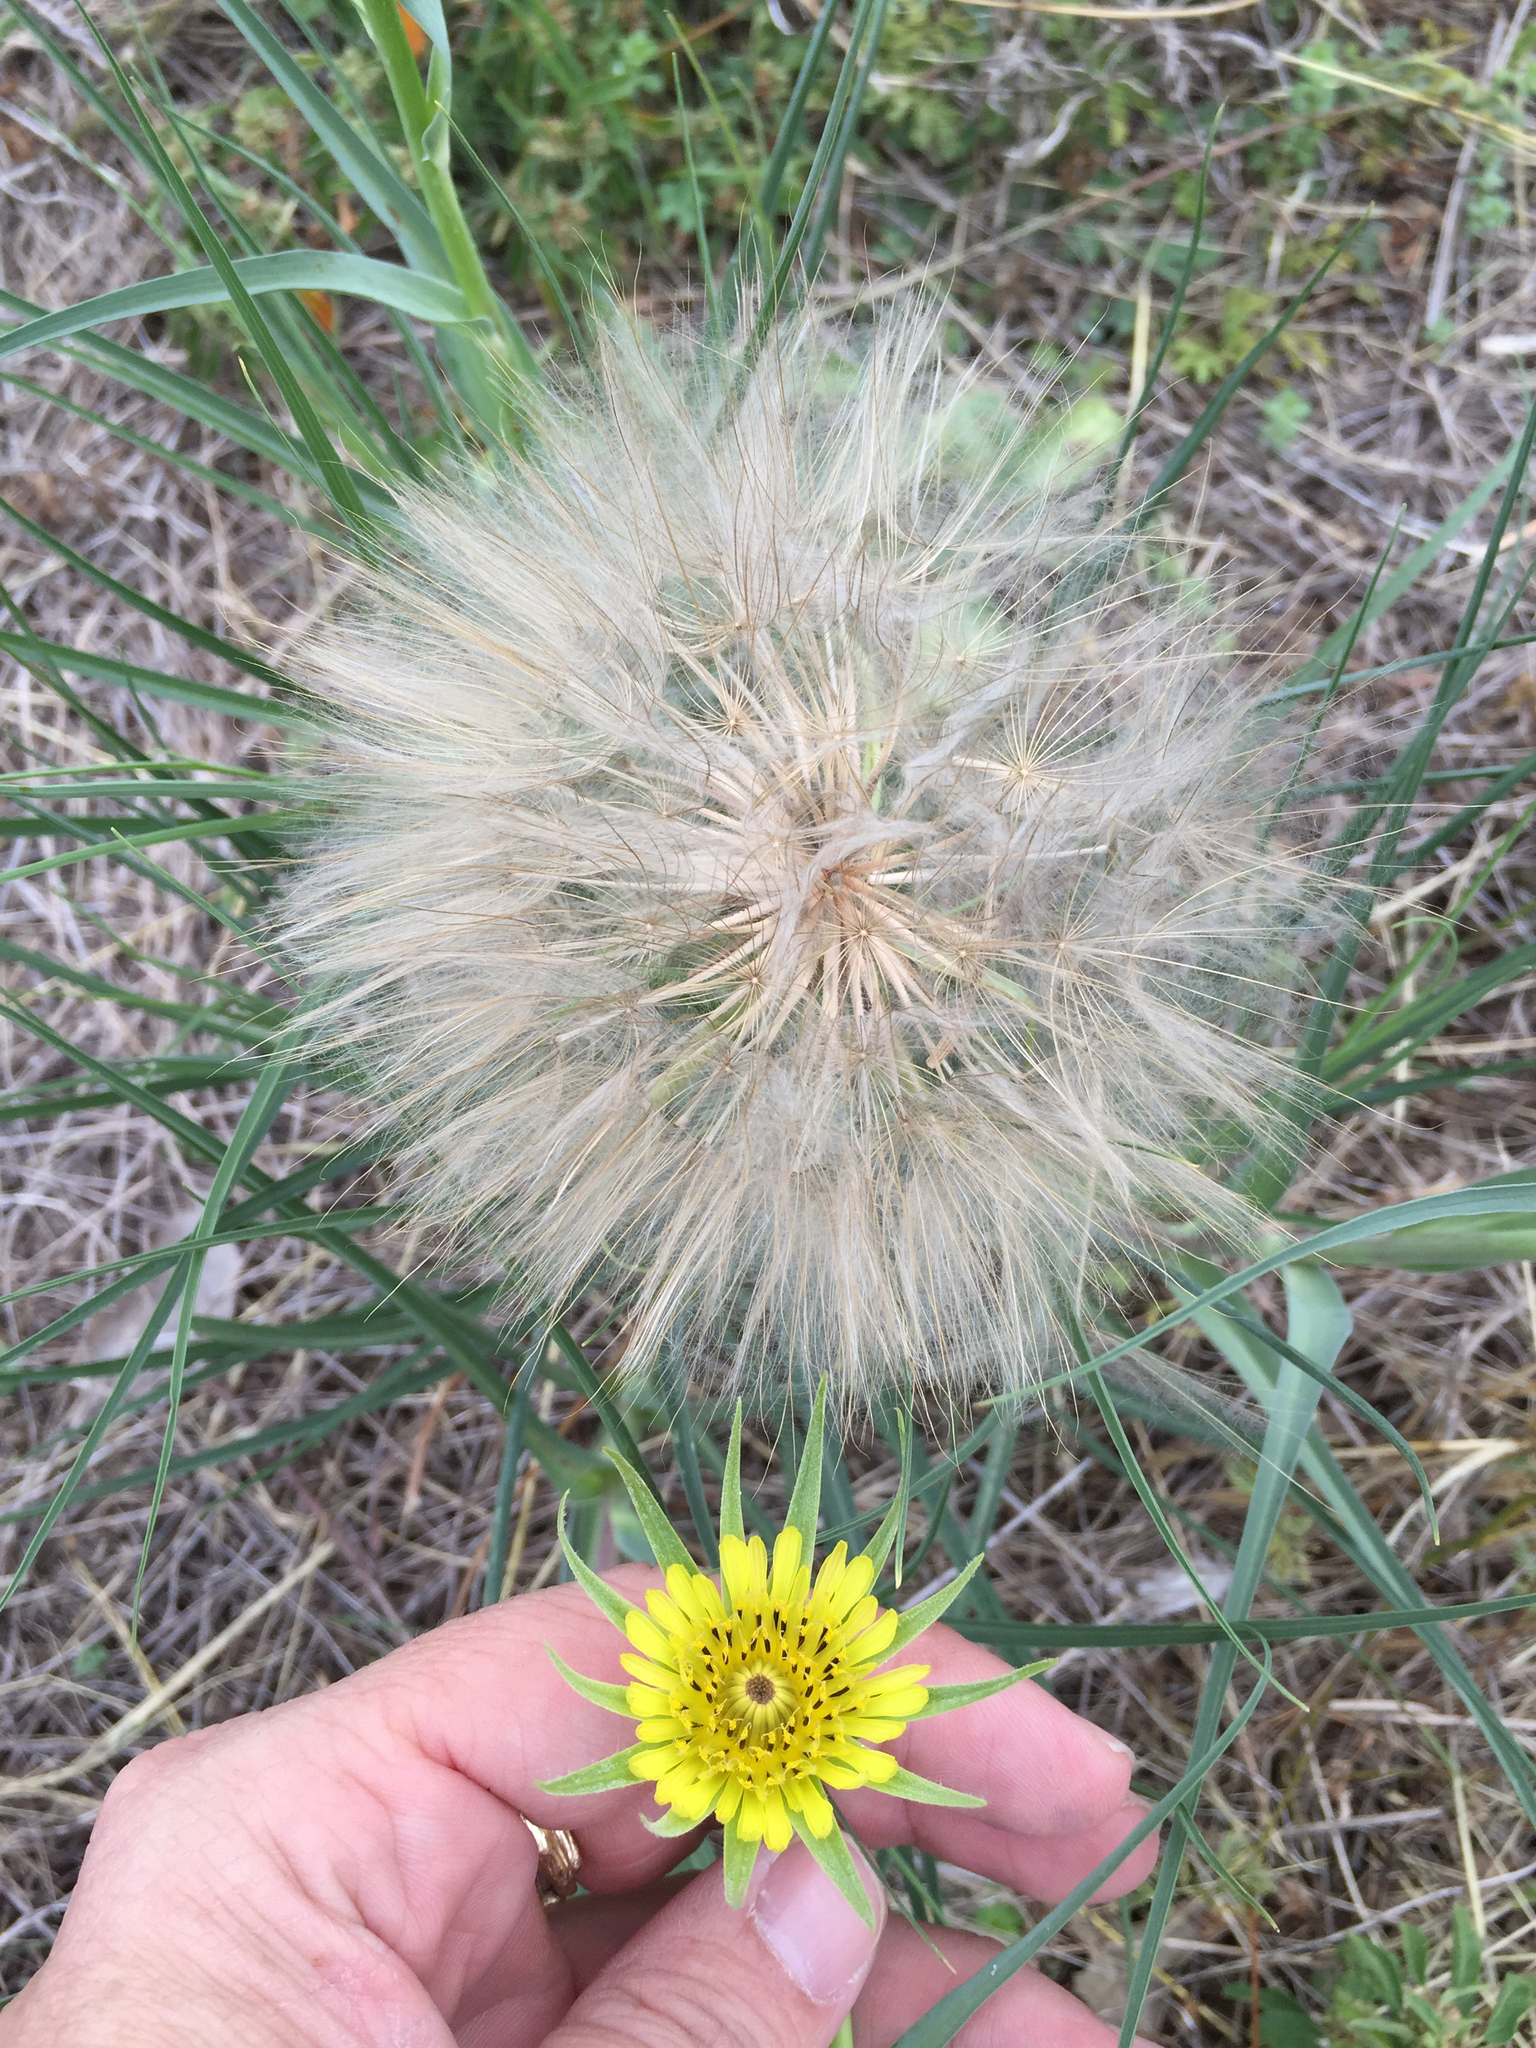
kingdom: Plantae
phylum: Tracheophyta
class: Magnoliopsida
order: Asterales
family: Asteraceae
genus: Tragopogon
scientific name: Tragopogon dubius
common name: Yellow salsify
